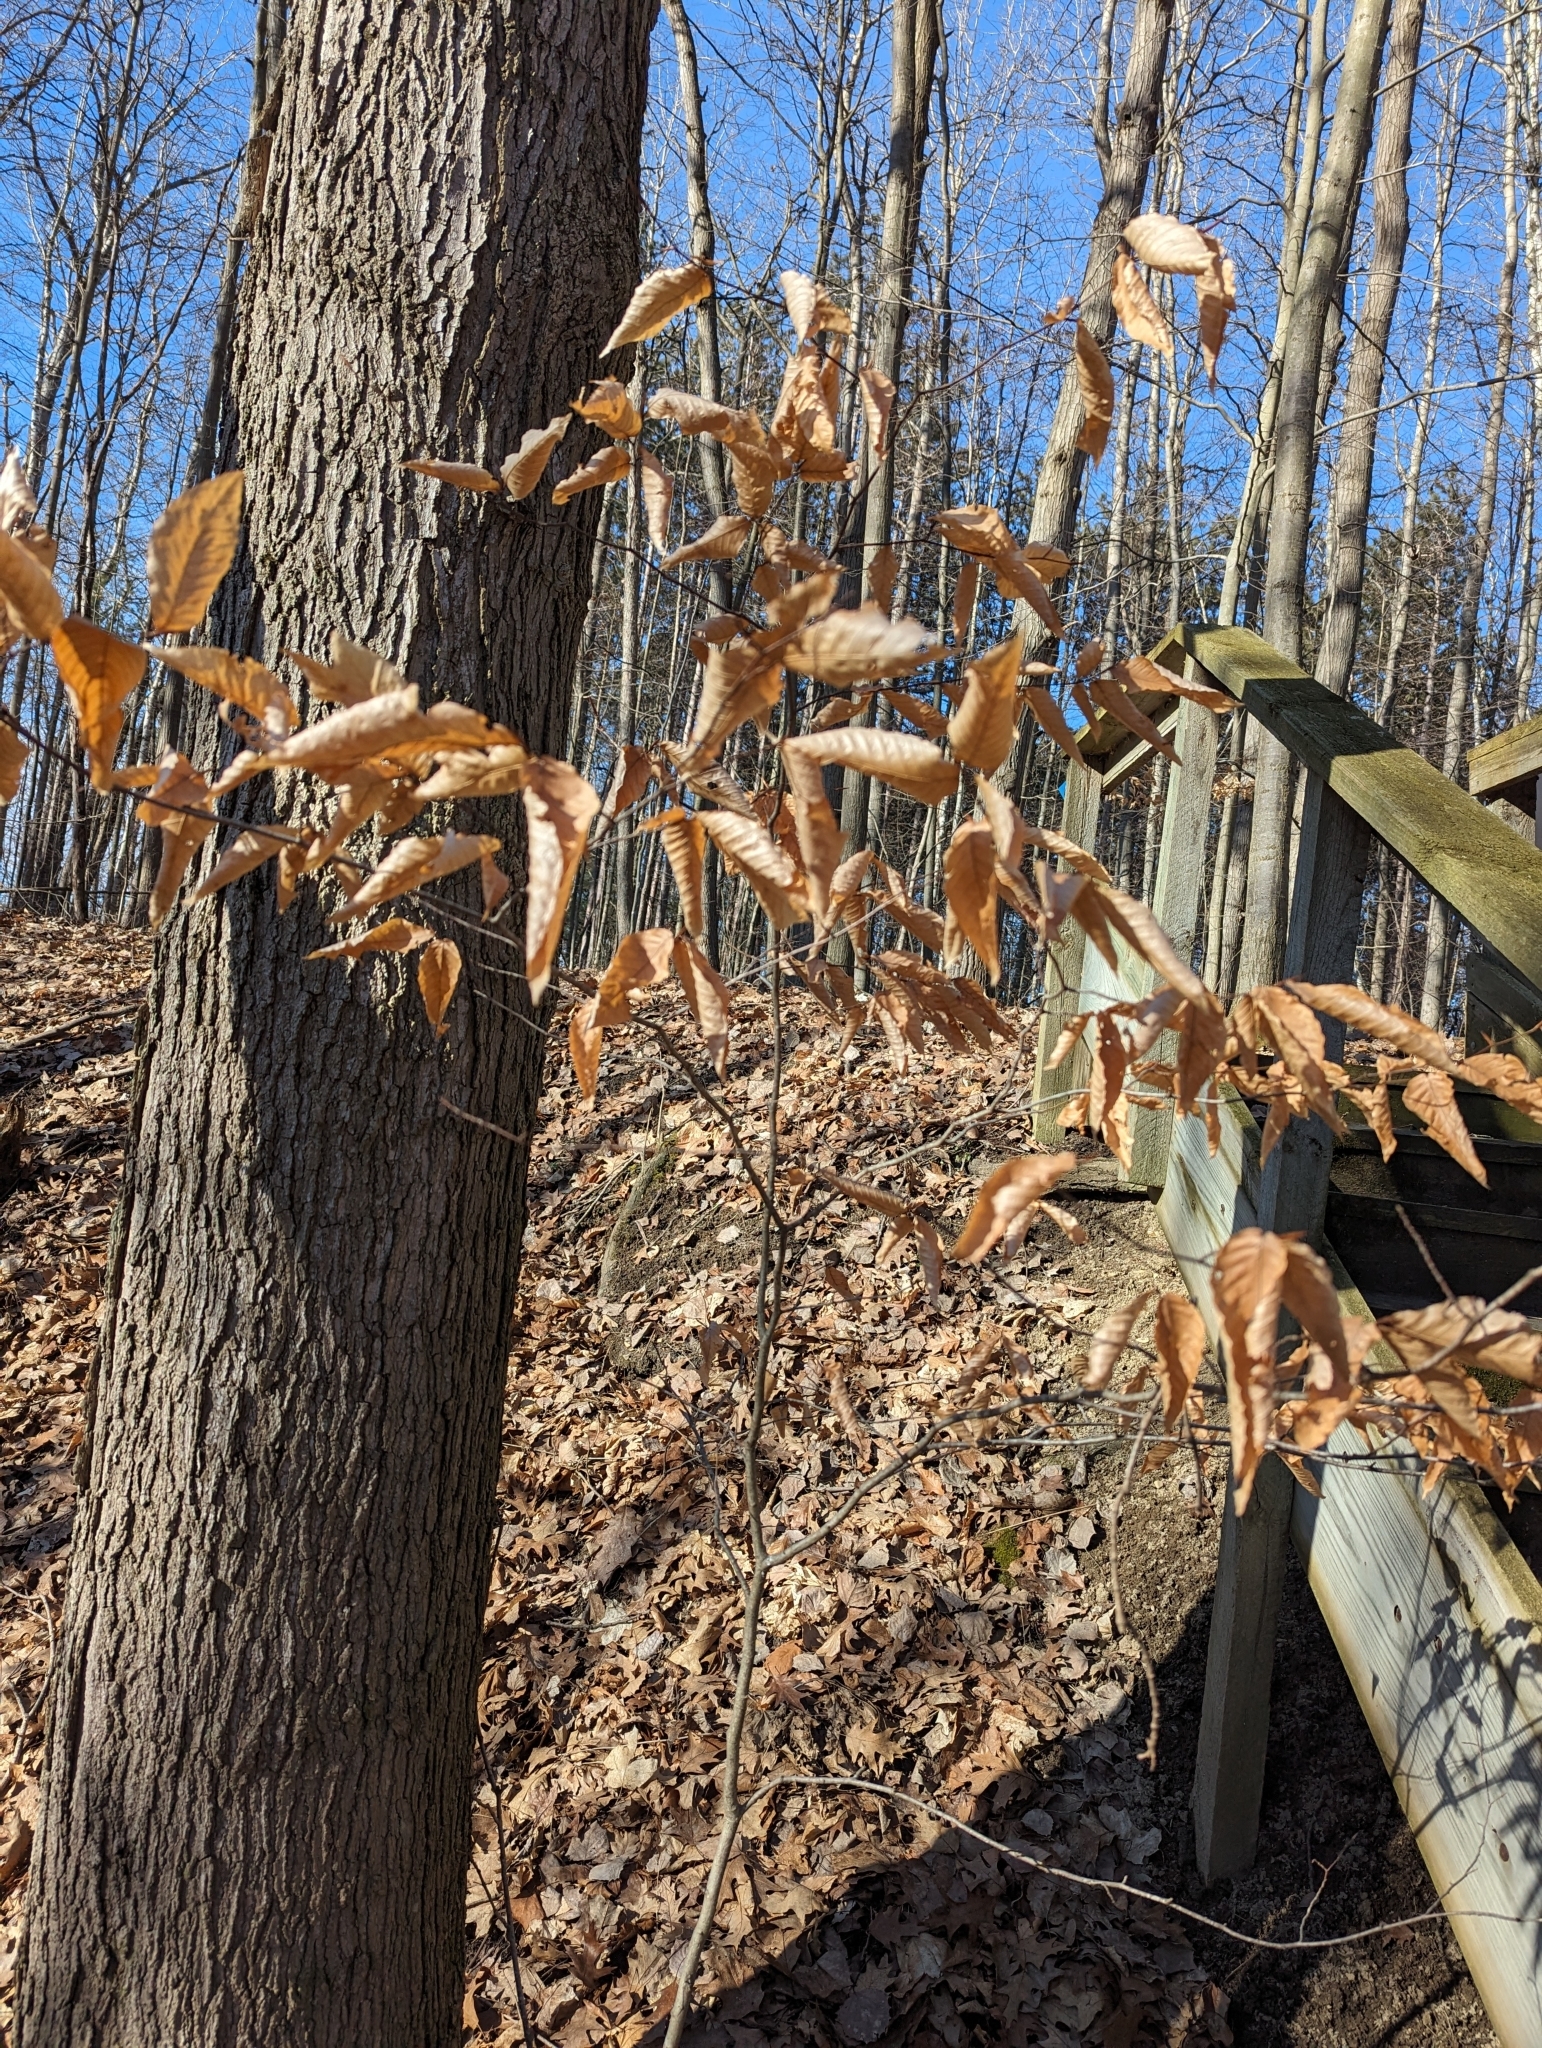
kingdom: Plantae
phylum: Tracheophyta
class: Magnoliopsida
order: Fagales
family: Fagaceae
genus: Fagus
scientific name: Fagus grandifolia
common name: American beech
